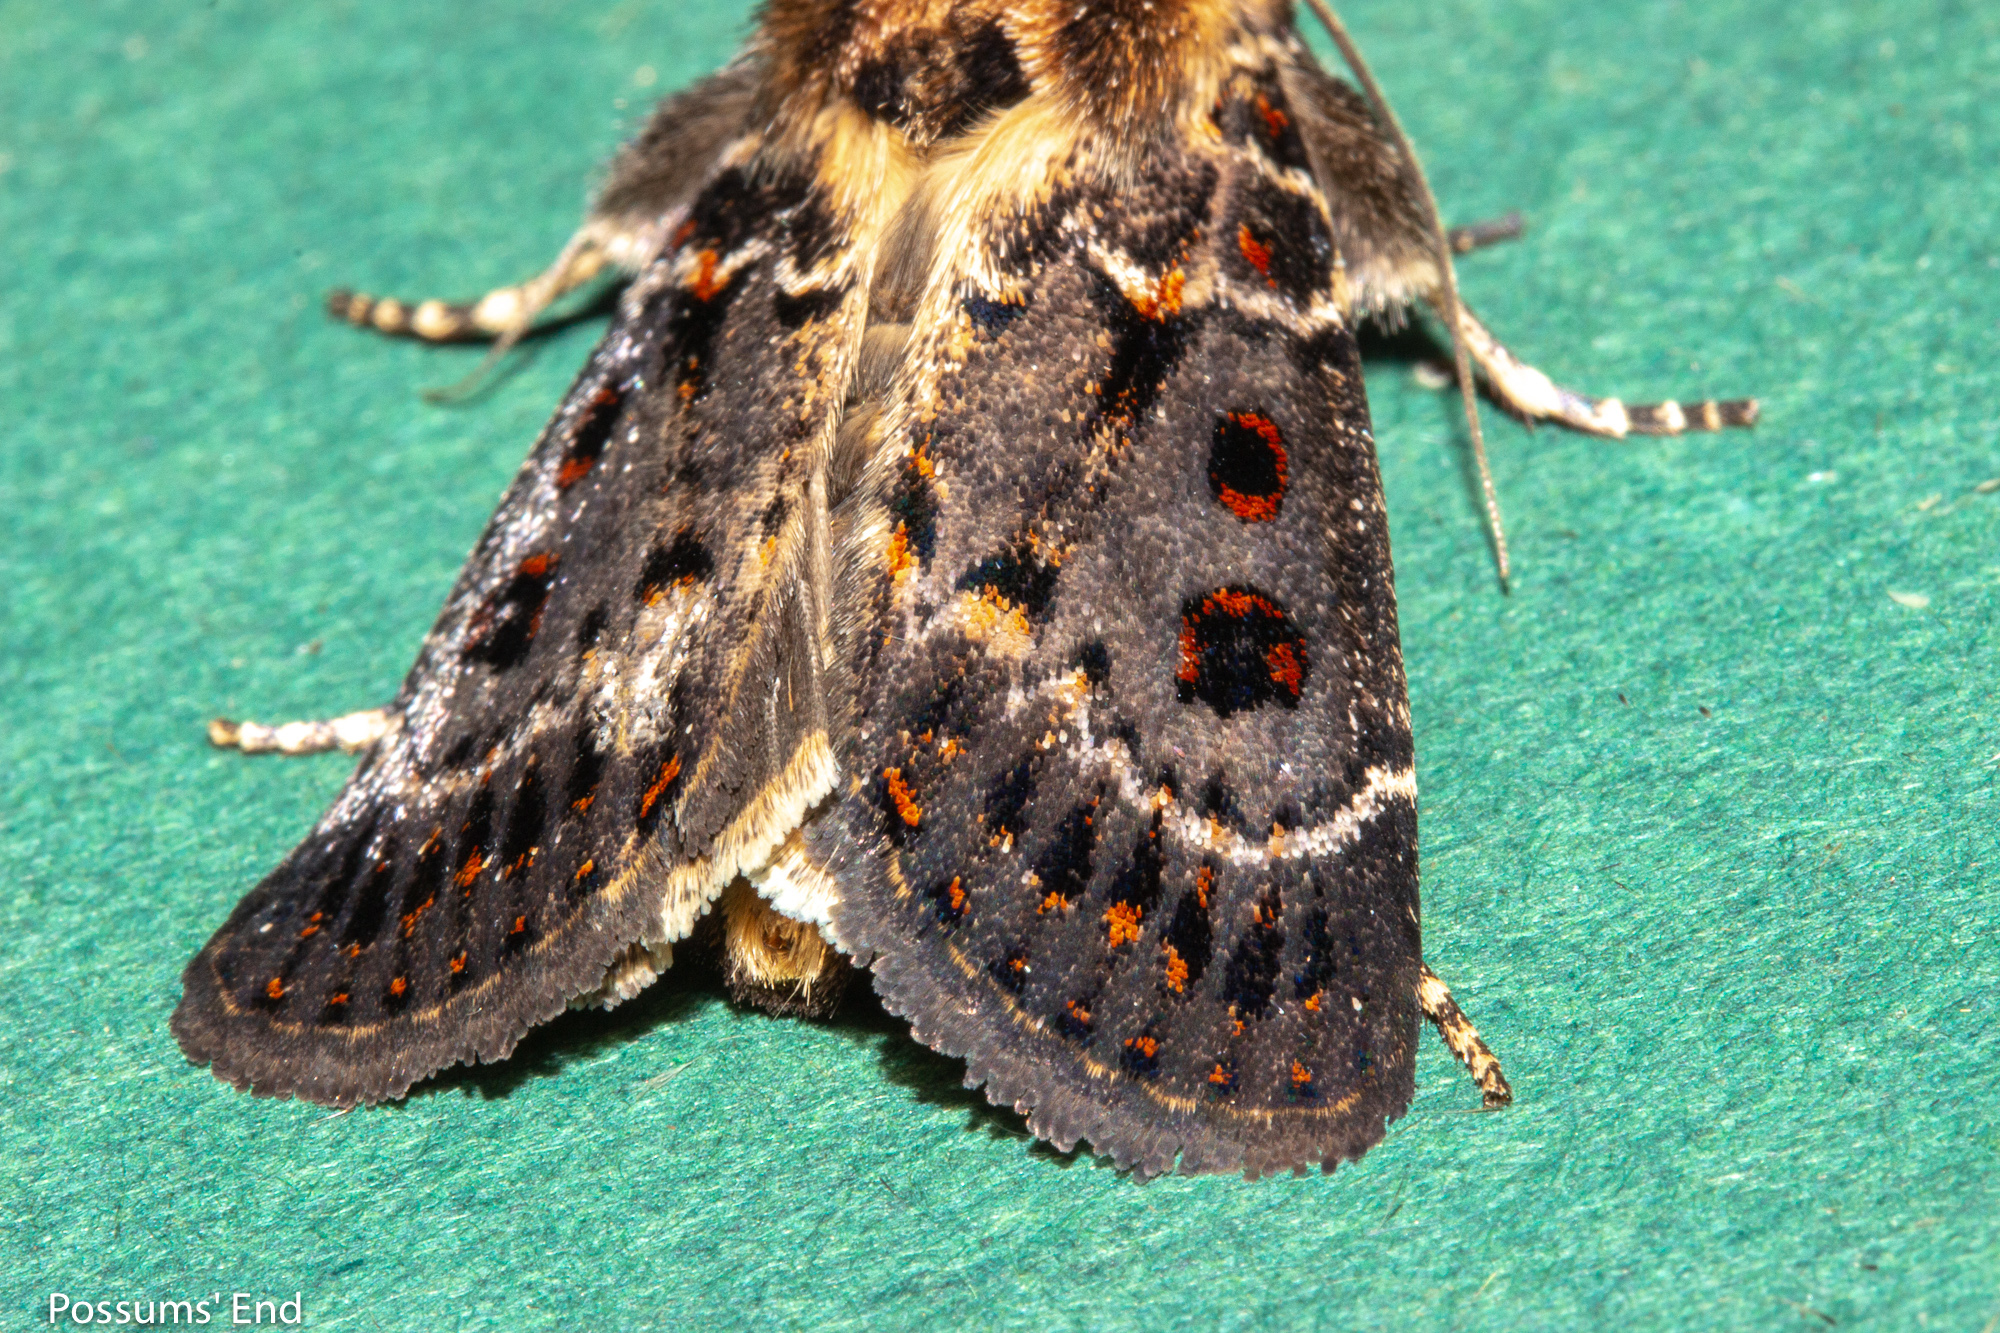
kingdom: Animalia
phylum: Arthropoda
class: Insecta
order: Lepidoptera
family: Noctuidae
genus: Proteuxoa
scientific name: Proteuxoa sanguinipuncta
